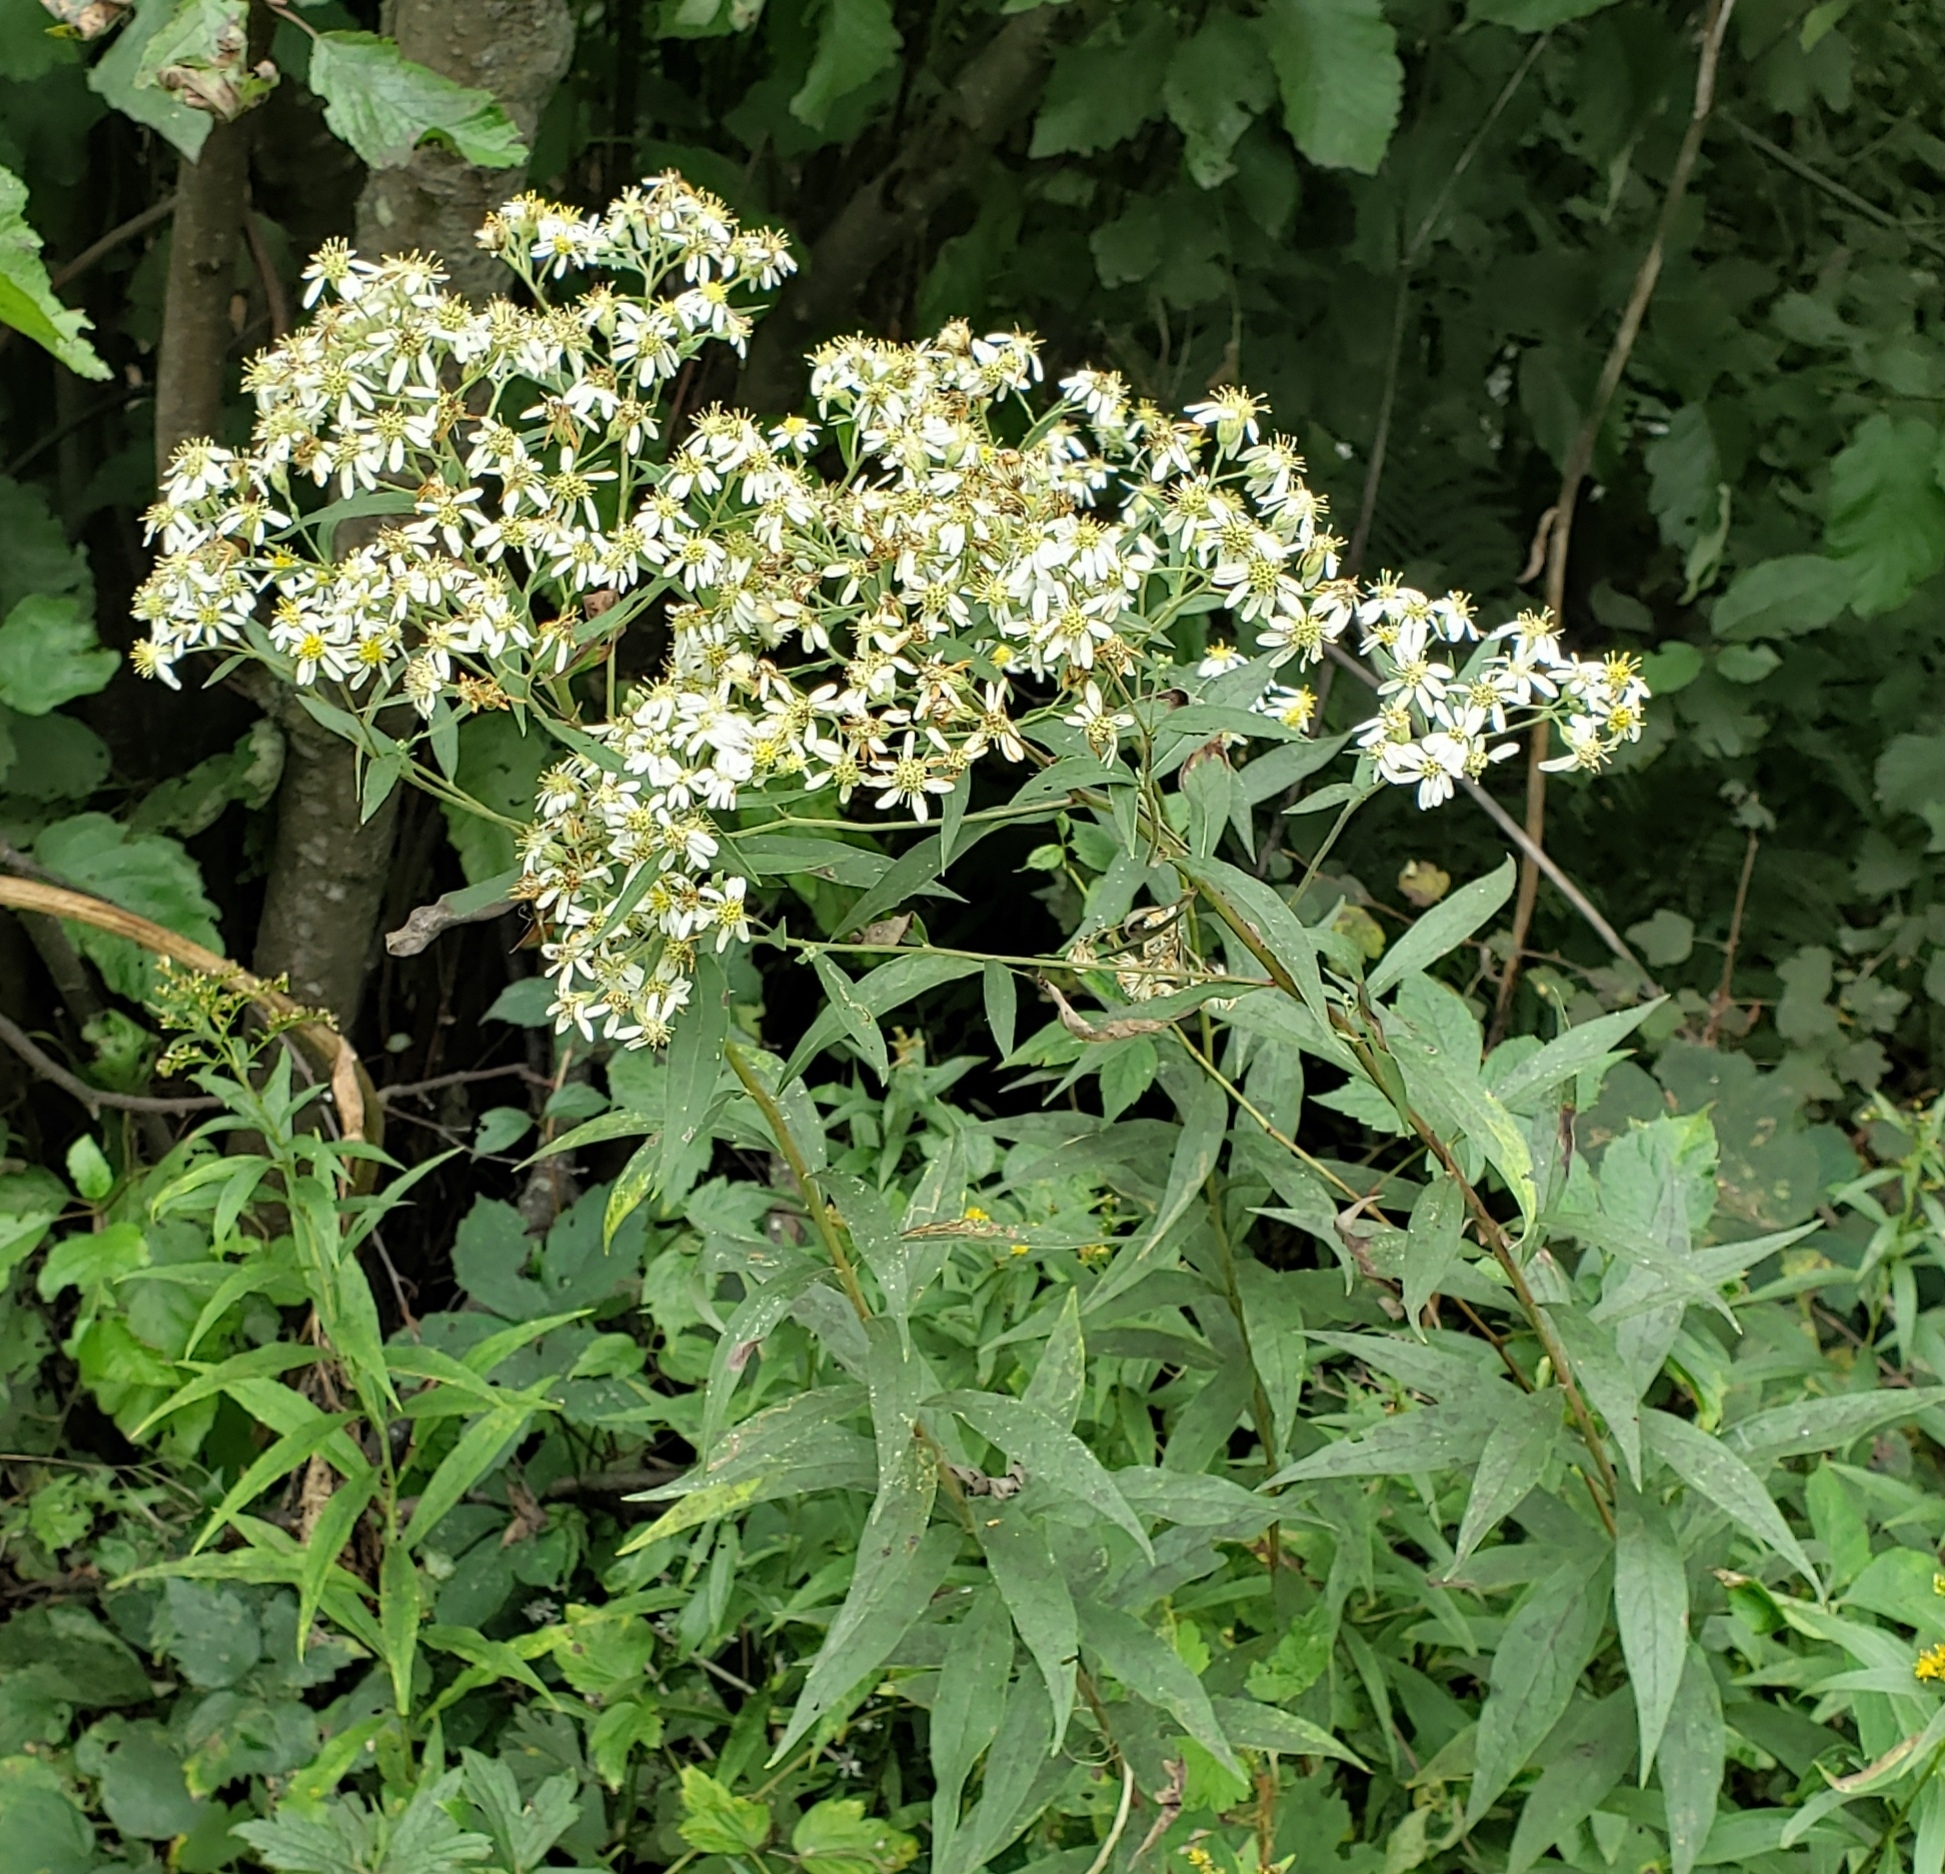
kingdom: Plantae
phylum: Tracheophyta
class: Magnoliopsida
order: Asterales
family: Asteraceae
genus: Doellingeria
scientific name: Doellingeria umbellata
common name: Flat-top white aster
